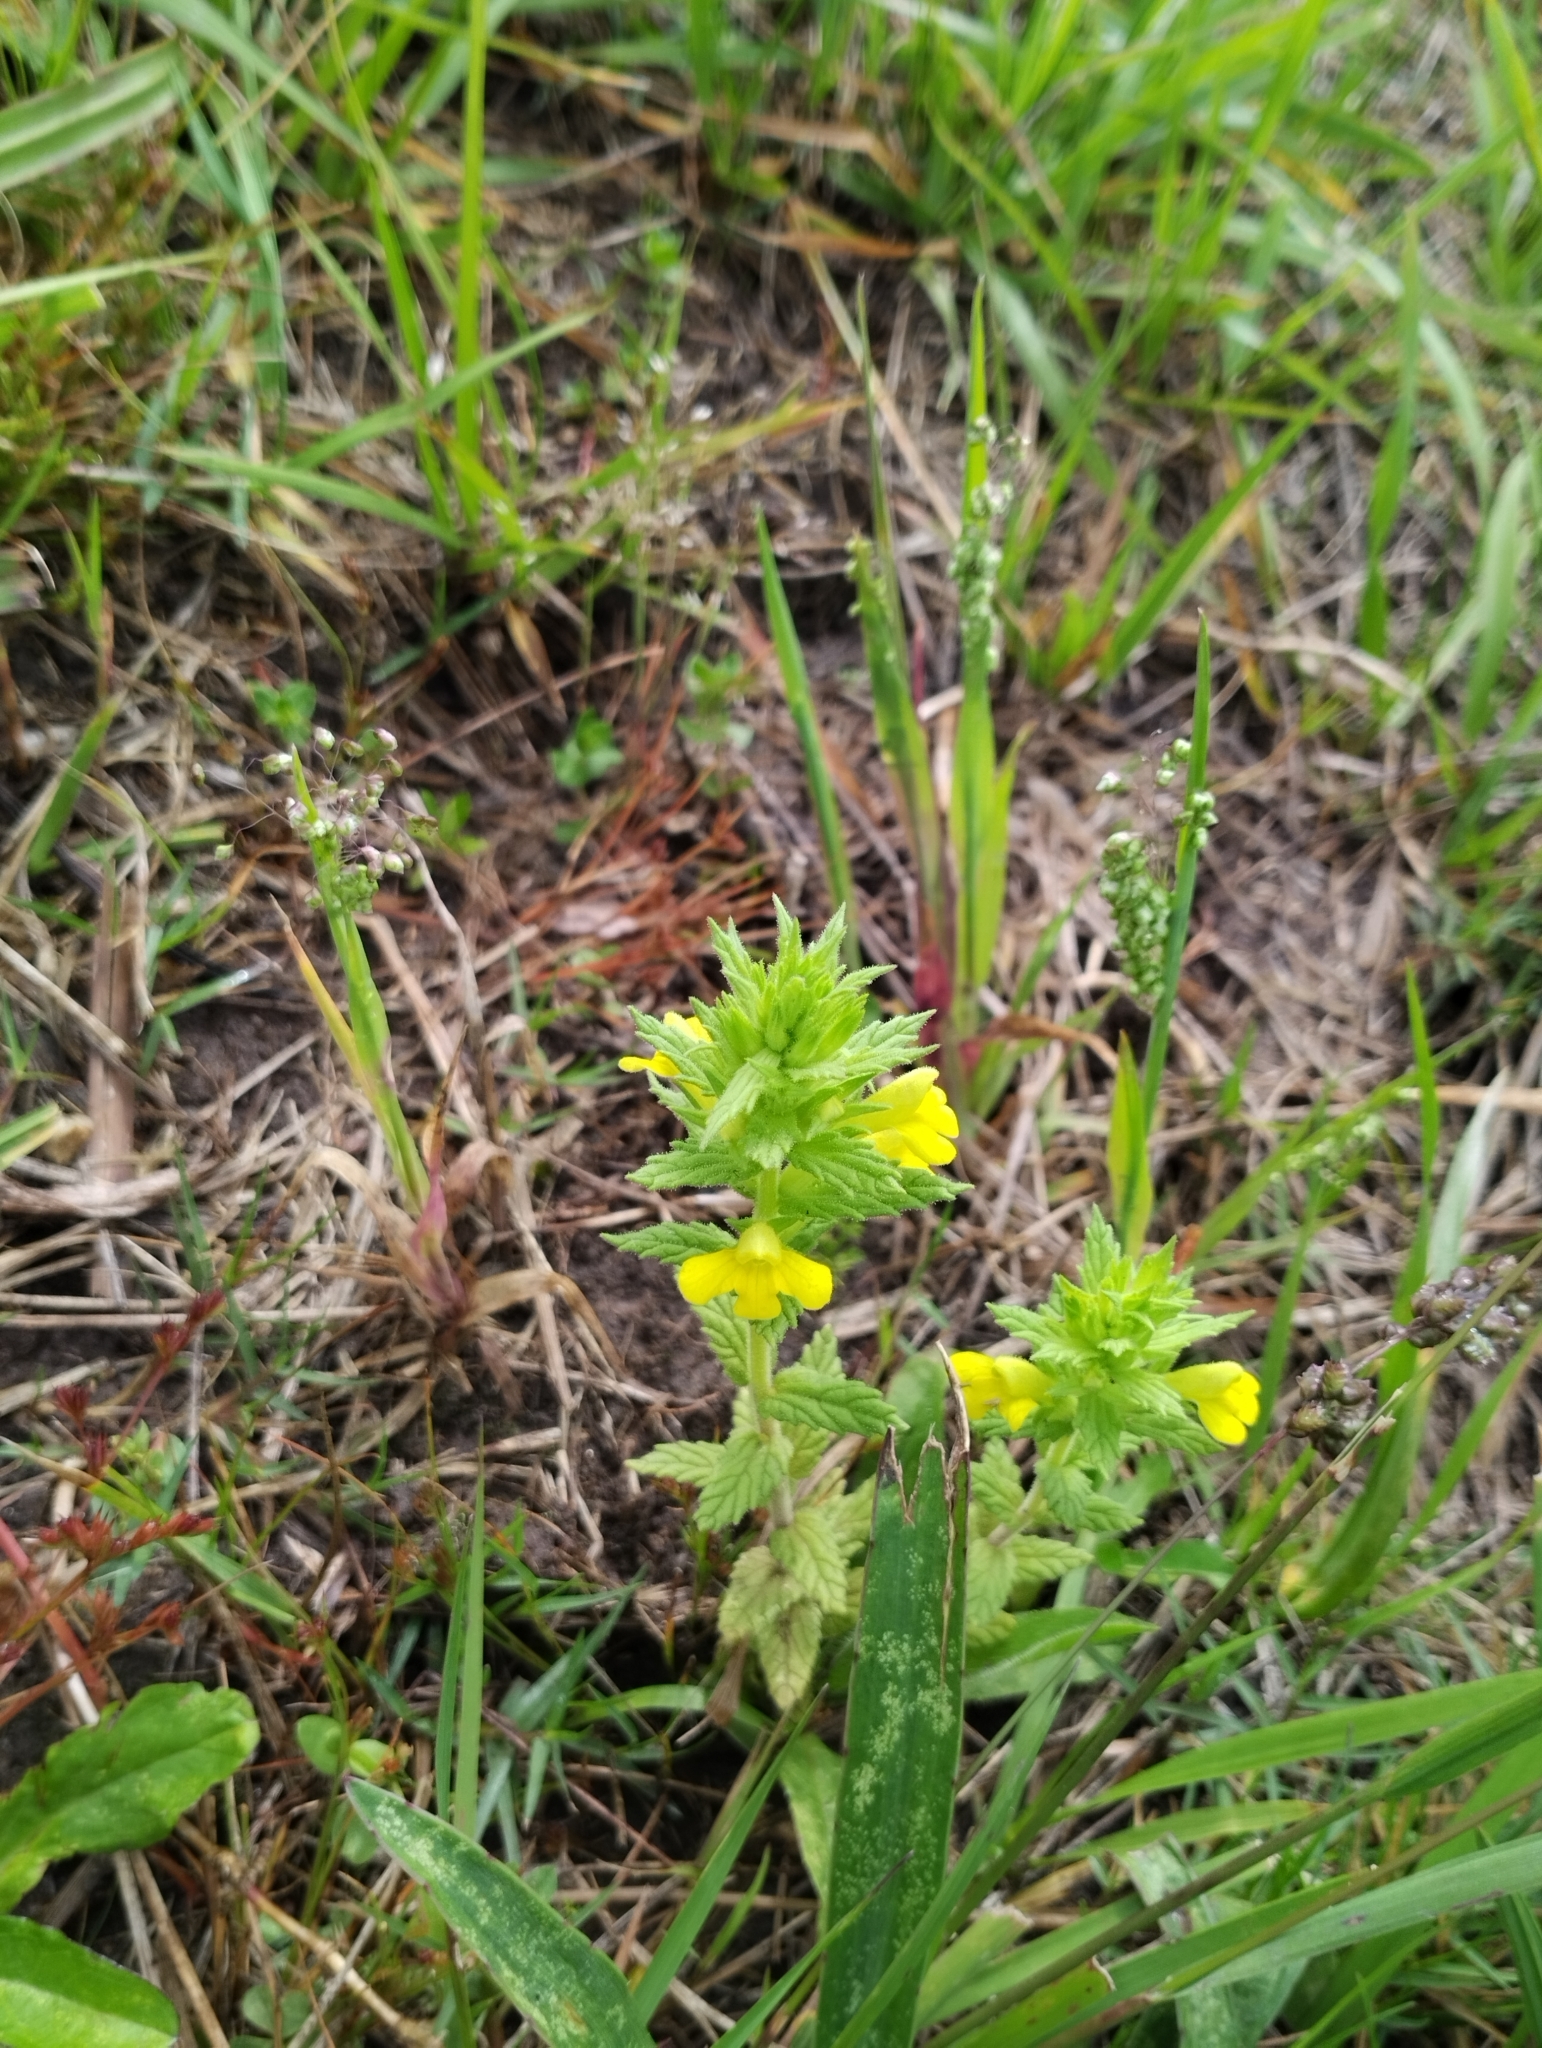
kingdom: Plantae
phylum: Tracheophyta
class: Magnoliopsida
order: Lamiales
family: Orobanchaceae
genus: Bellardia
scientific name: Bellardia viscosa
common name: Sticky parentucellia
